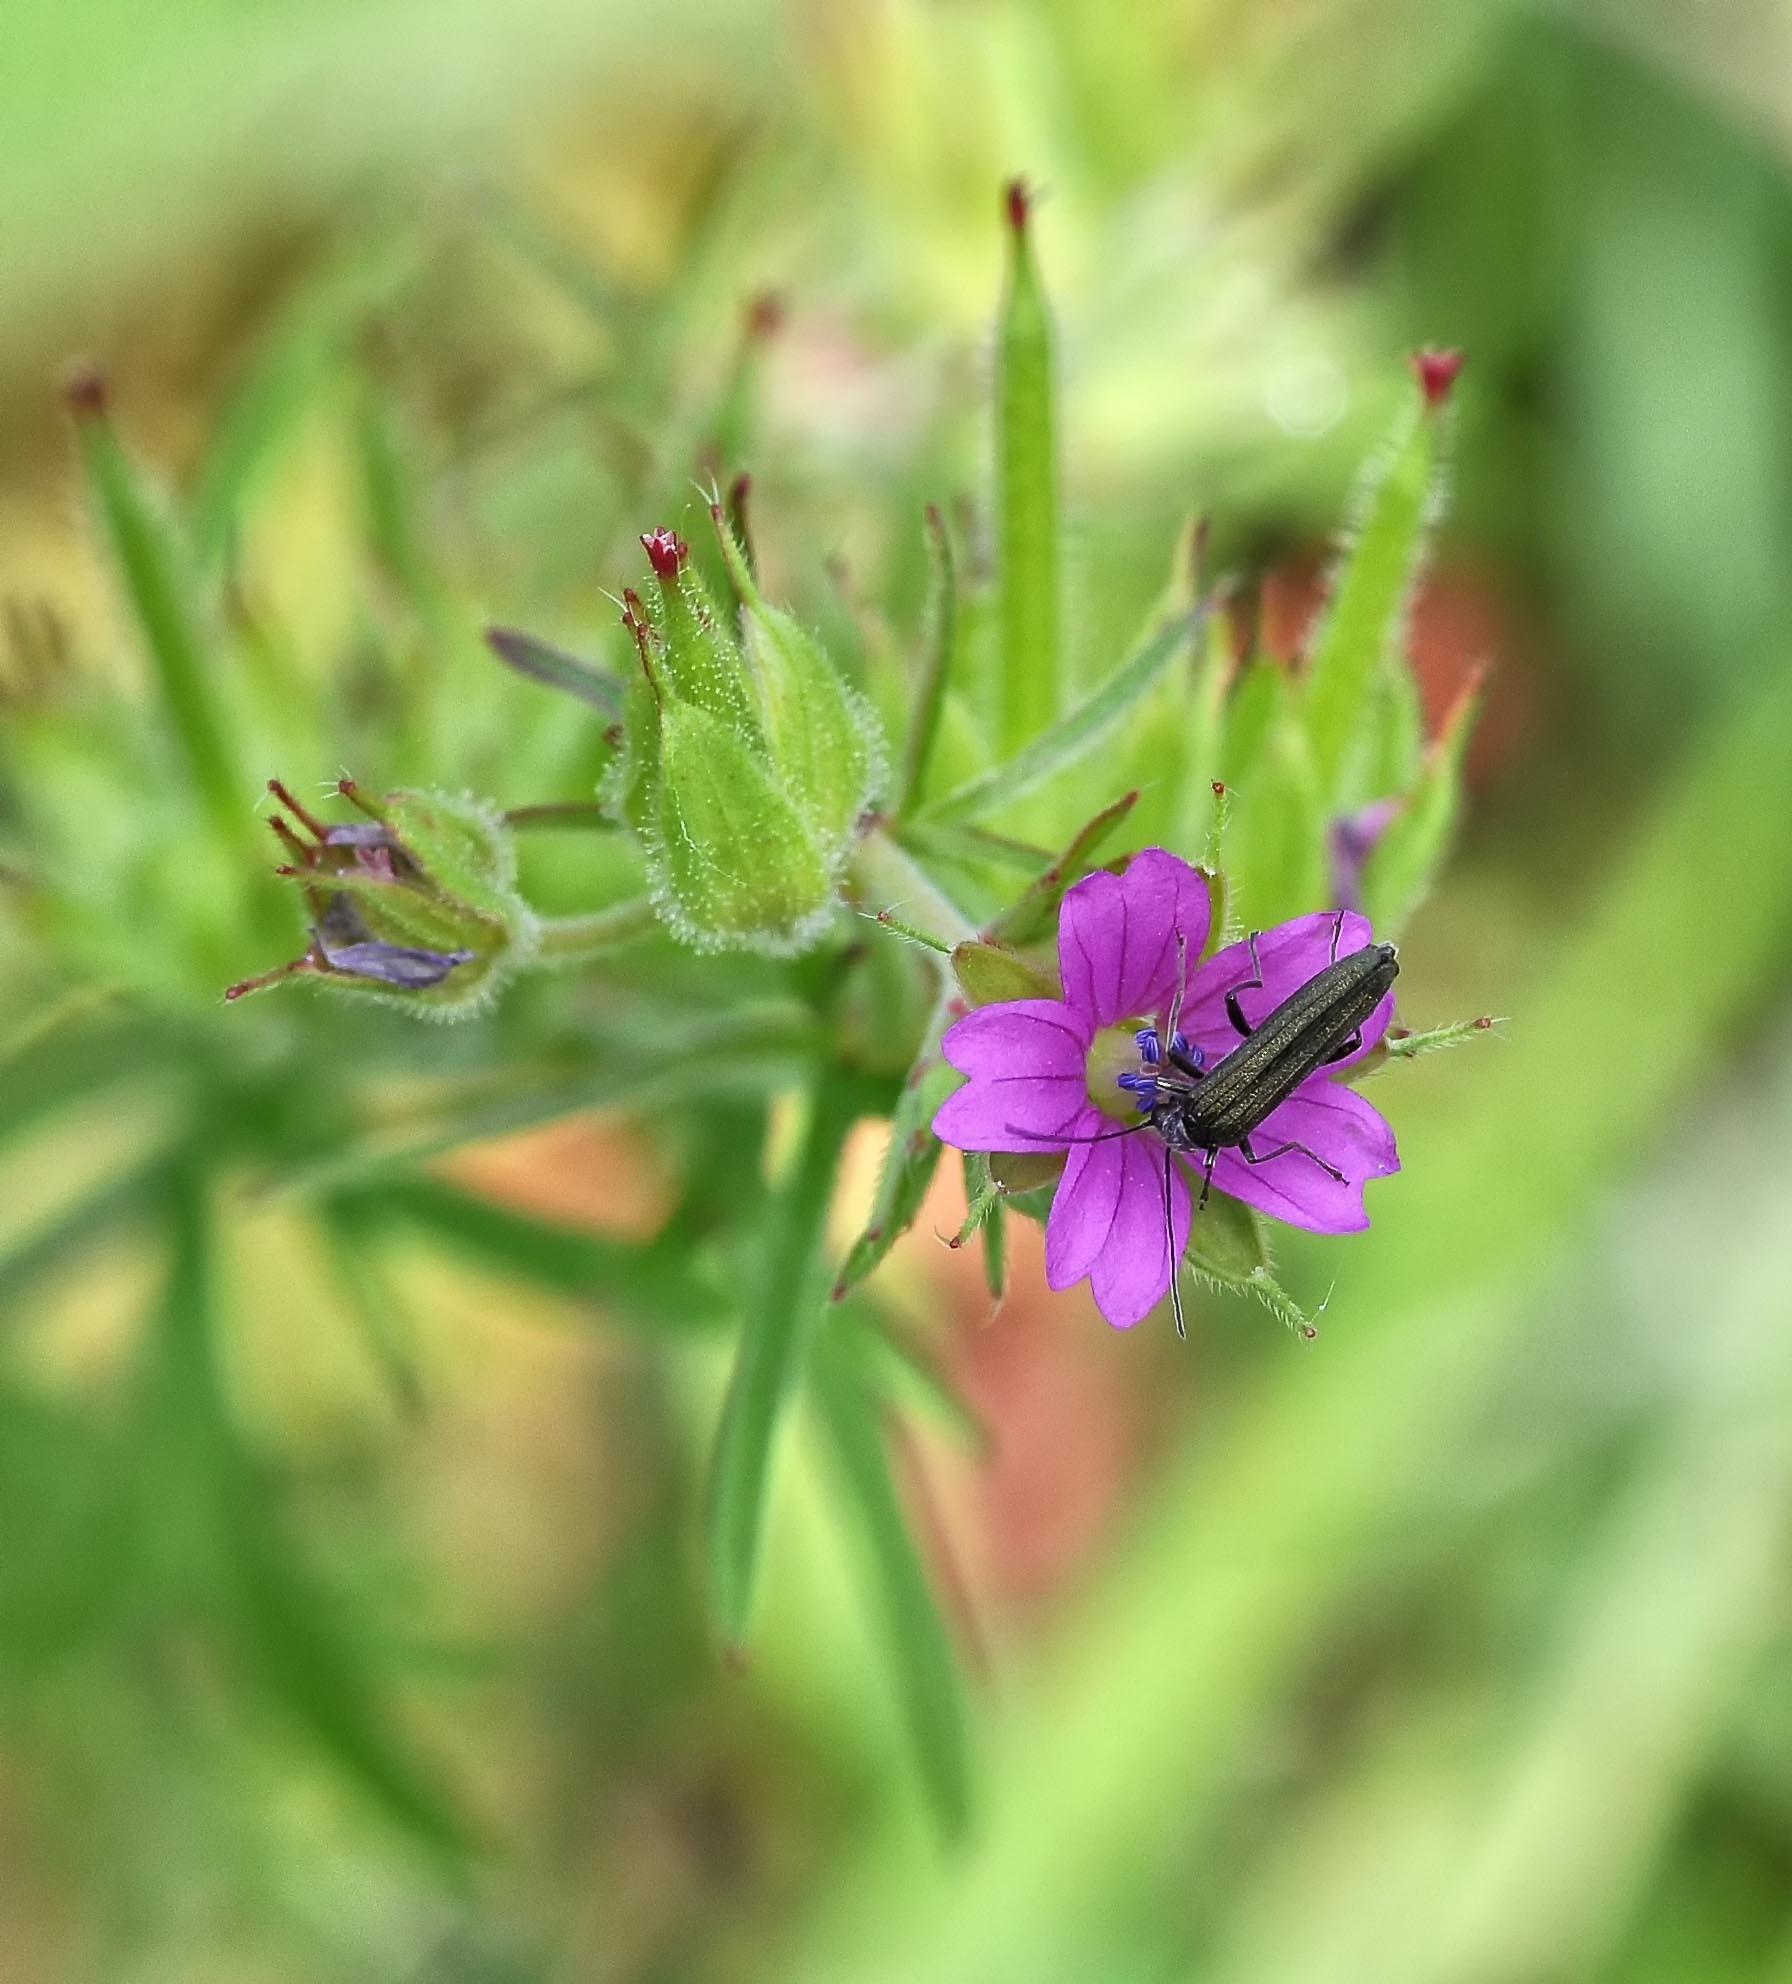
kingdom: Plantae
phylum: Tracheophyta
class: Magnoliopsida
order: Geraniales
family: Geraniaceae
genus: Geranium
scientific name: Geranium dissectum
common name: Cut-leaved crane's-bill
